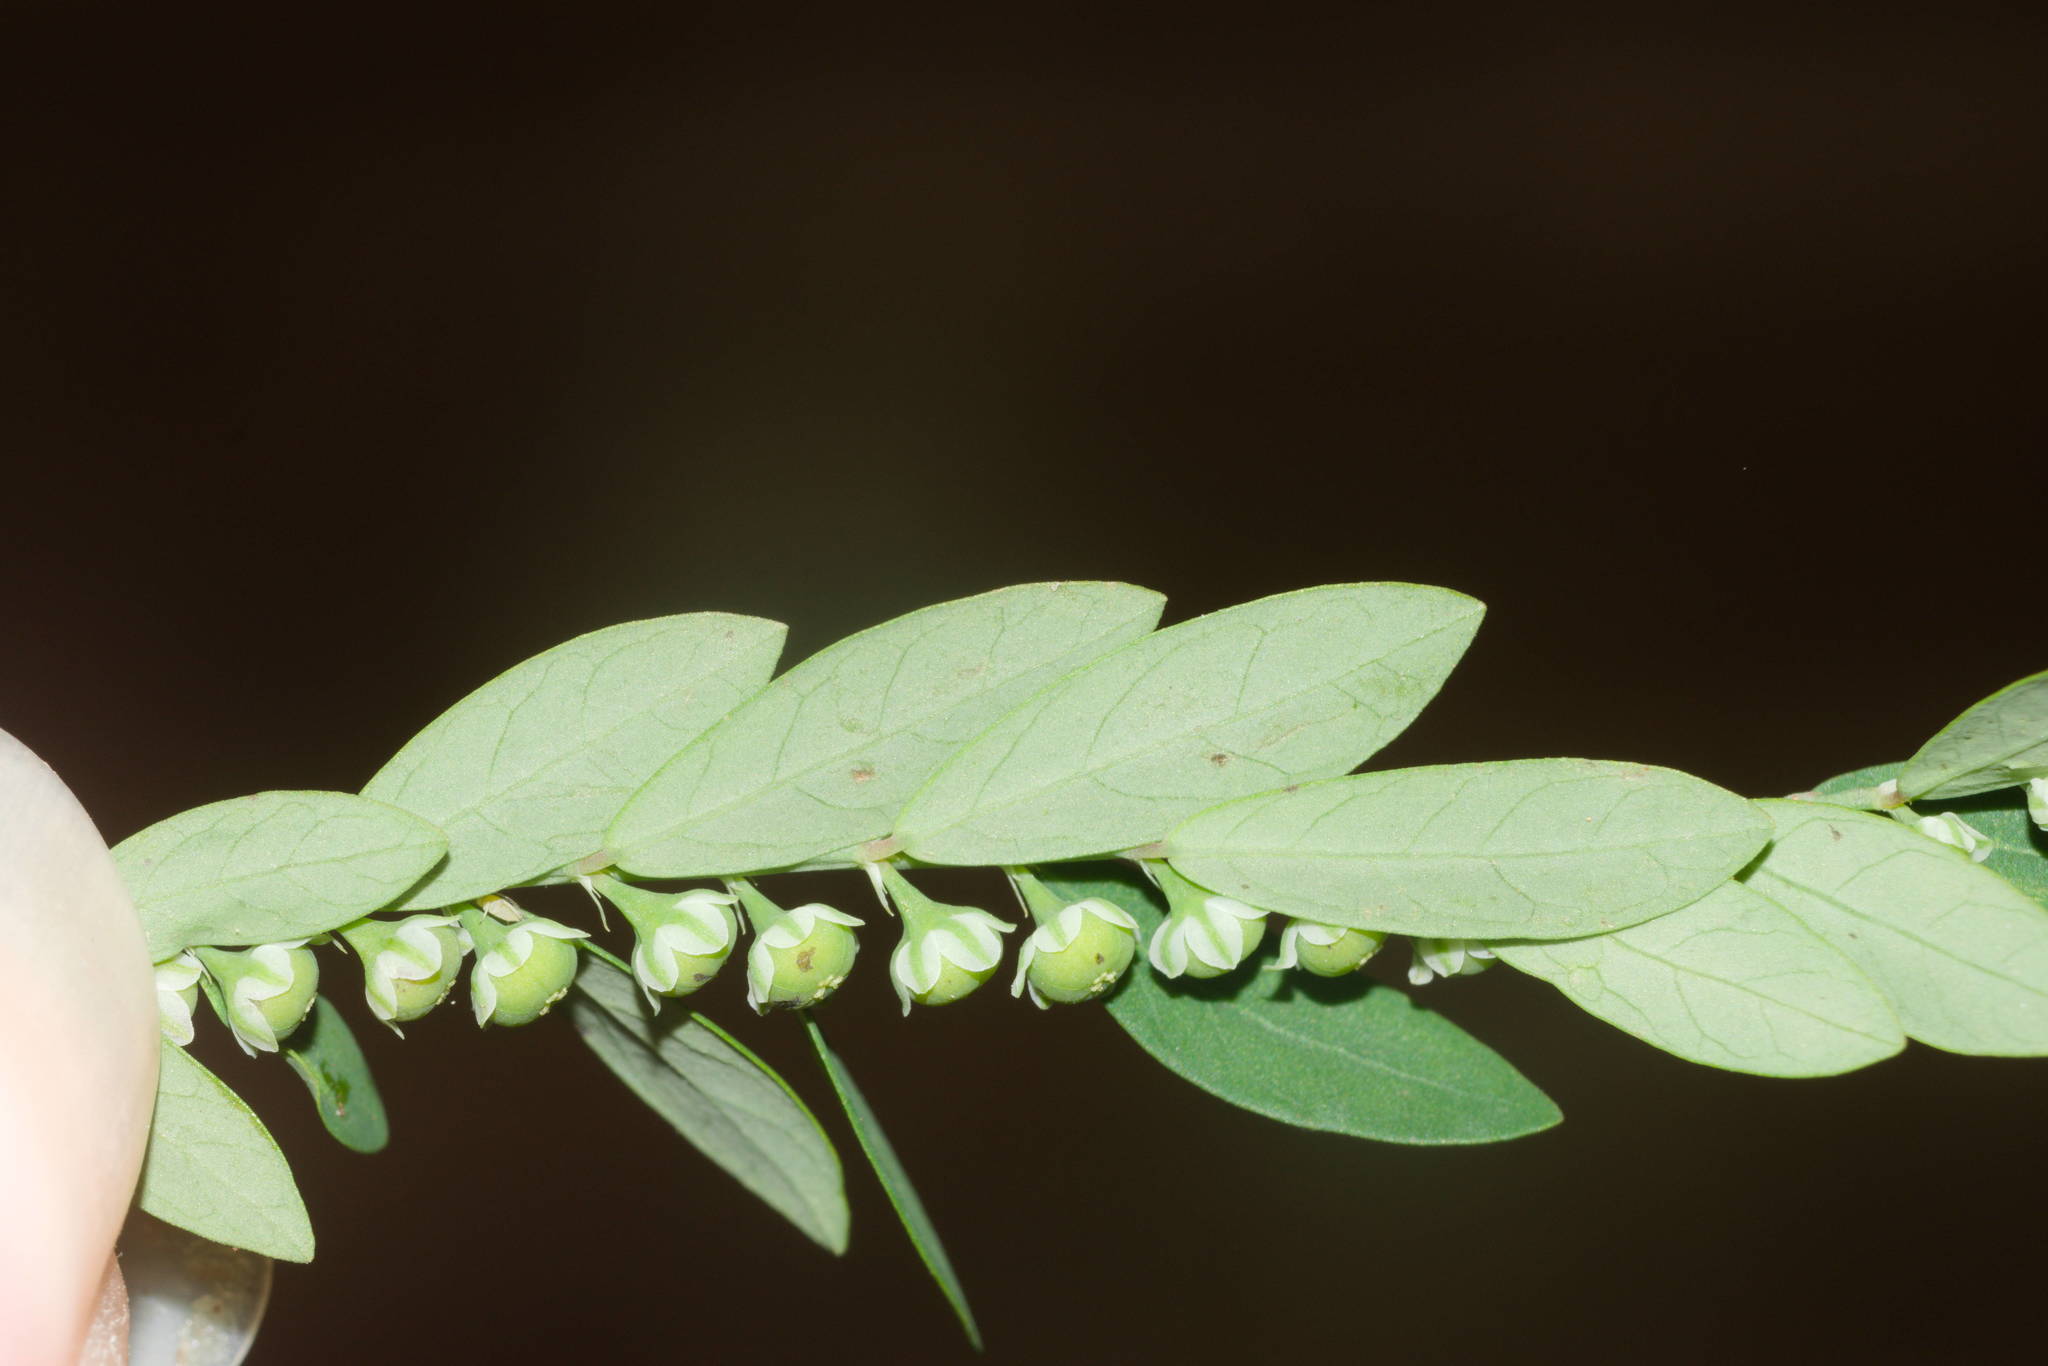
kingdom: Plantae
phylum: Tracheophyta
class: Magnoliopsida
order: Malpighiales
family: Phyllanthaceae
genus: Phyllanthus
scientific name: Phyllanthus debilis
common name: Niruri
